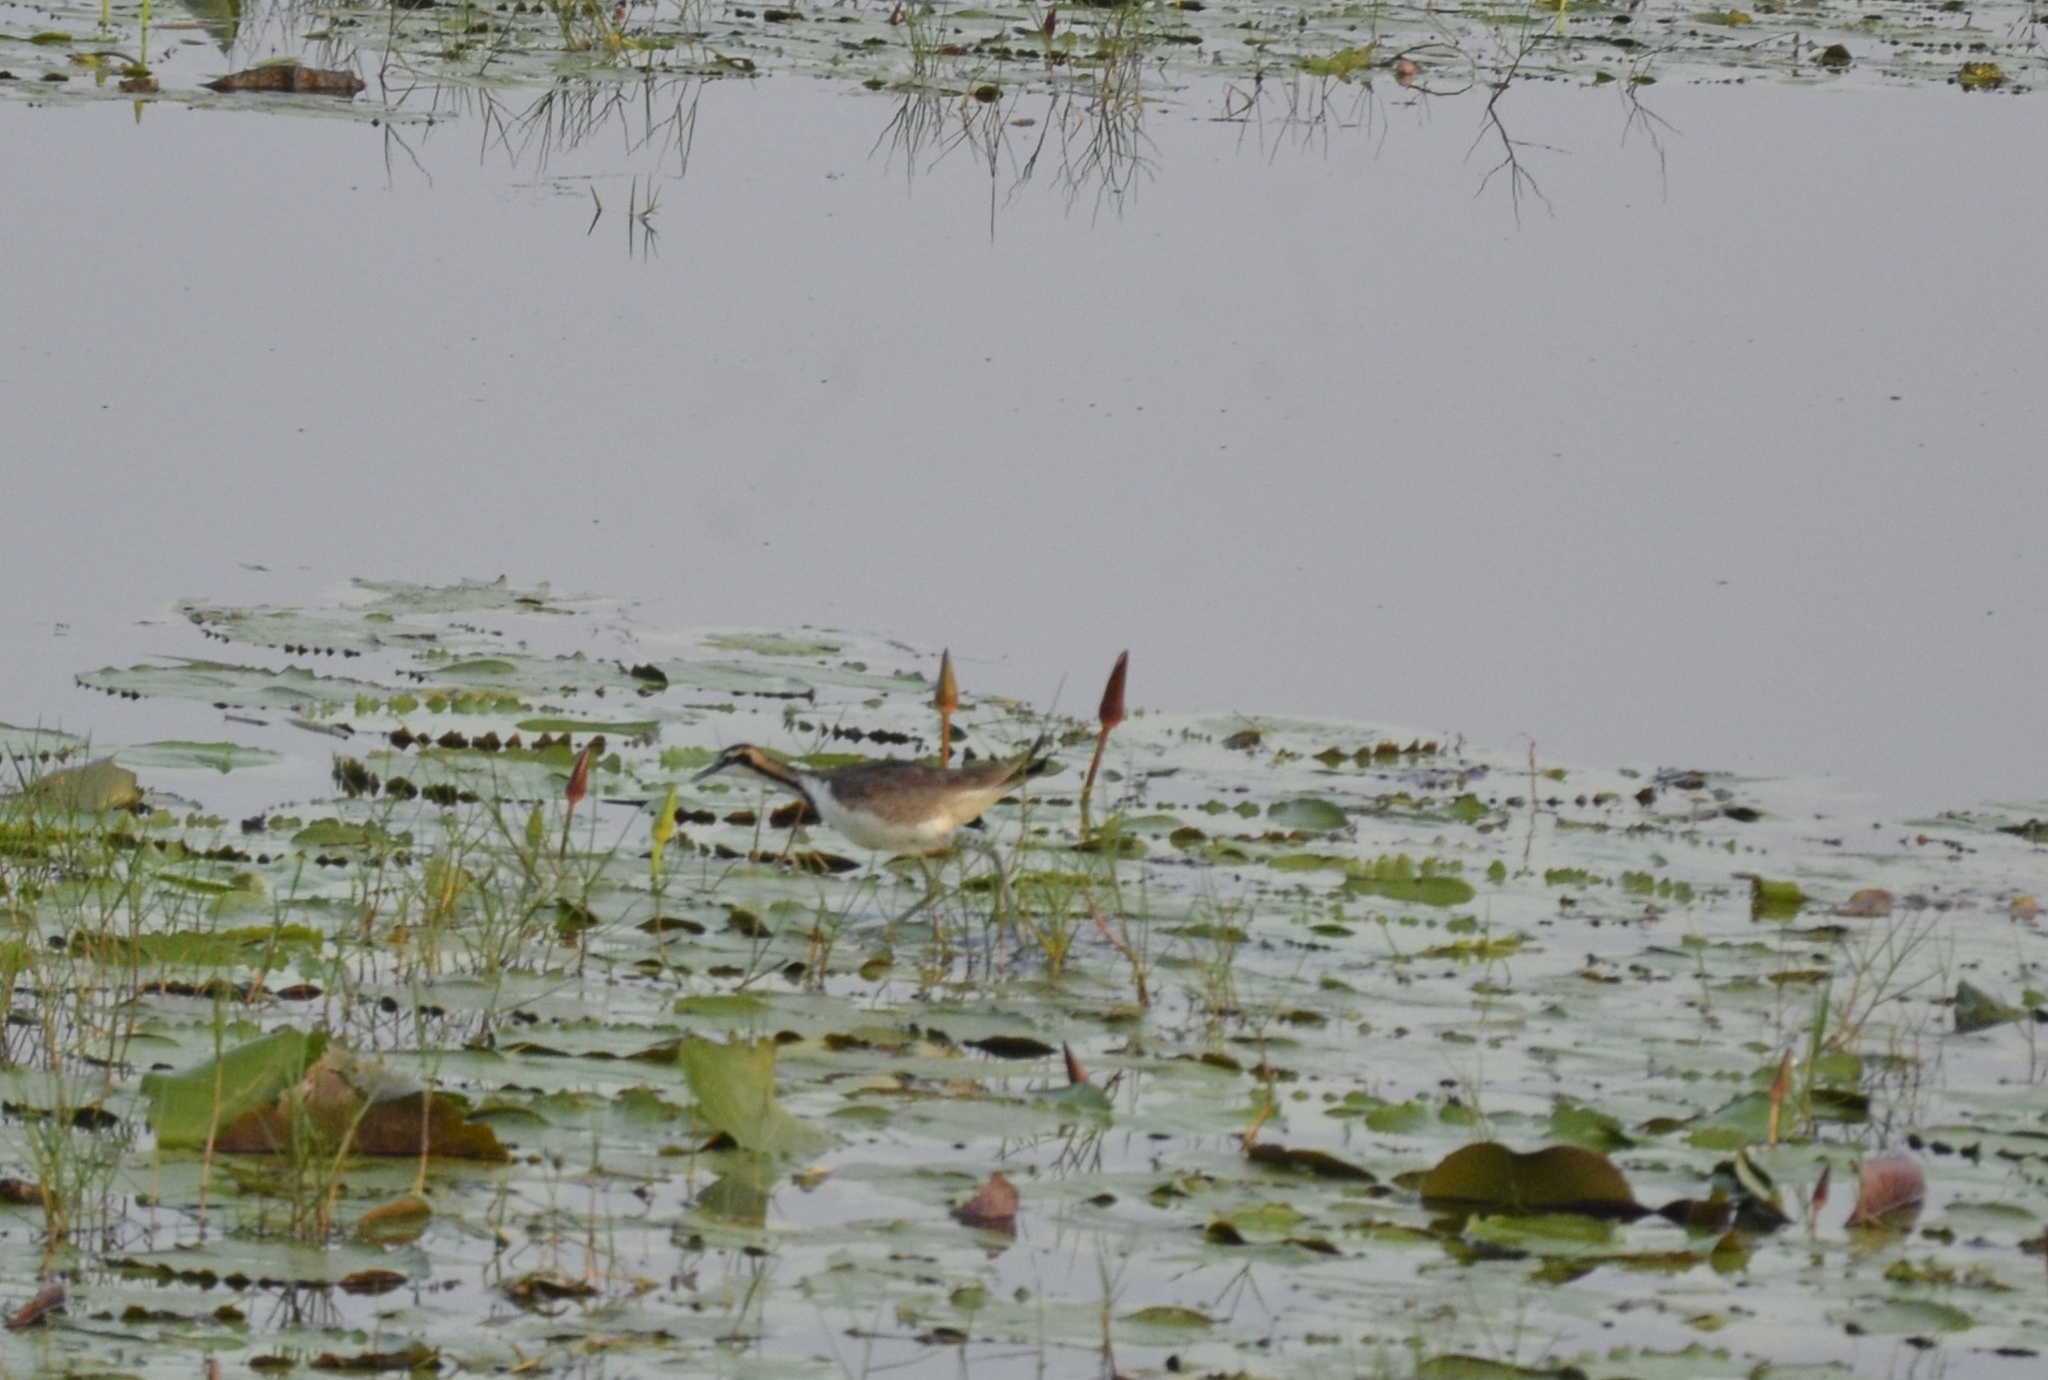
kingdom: Animalia
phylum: Chordata
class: Aves
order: Charadriiformes
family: Jacanidae
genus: Hydrophasianus
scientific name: Hydrophasianus chirurgus
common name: Pheasant-tailed jacana
